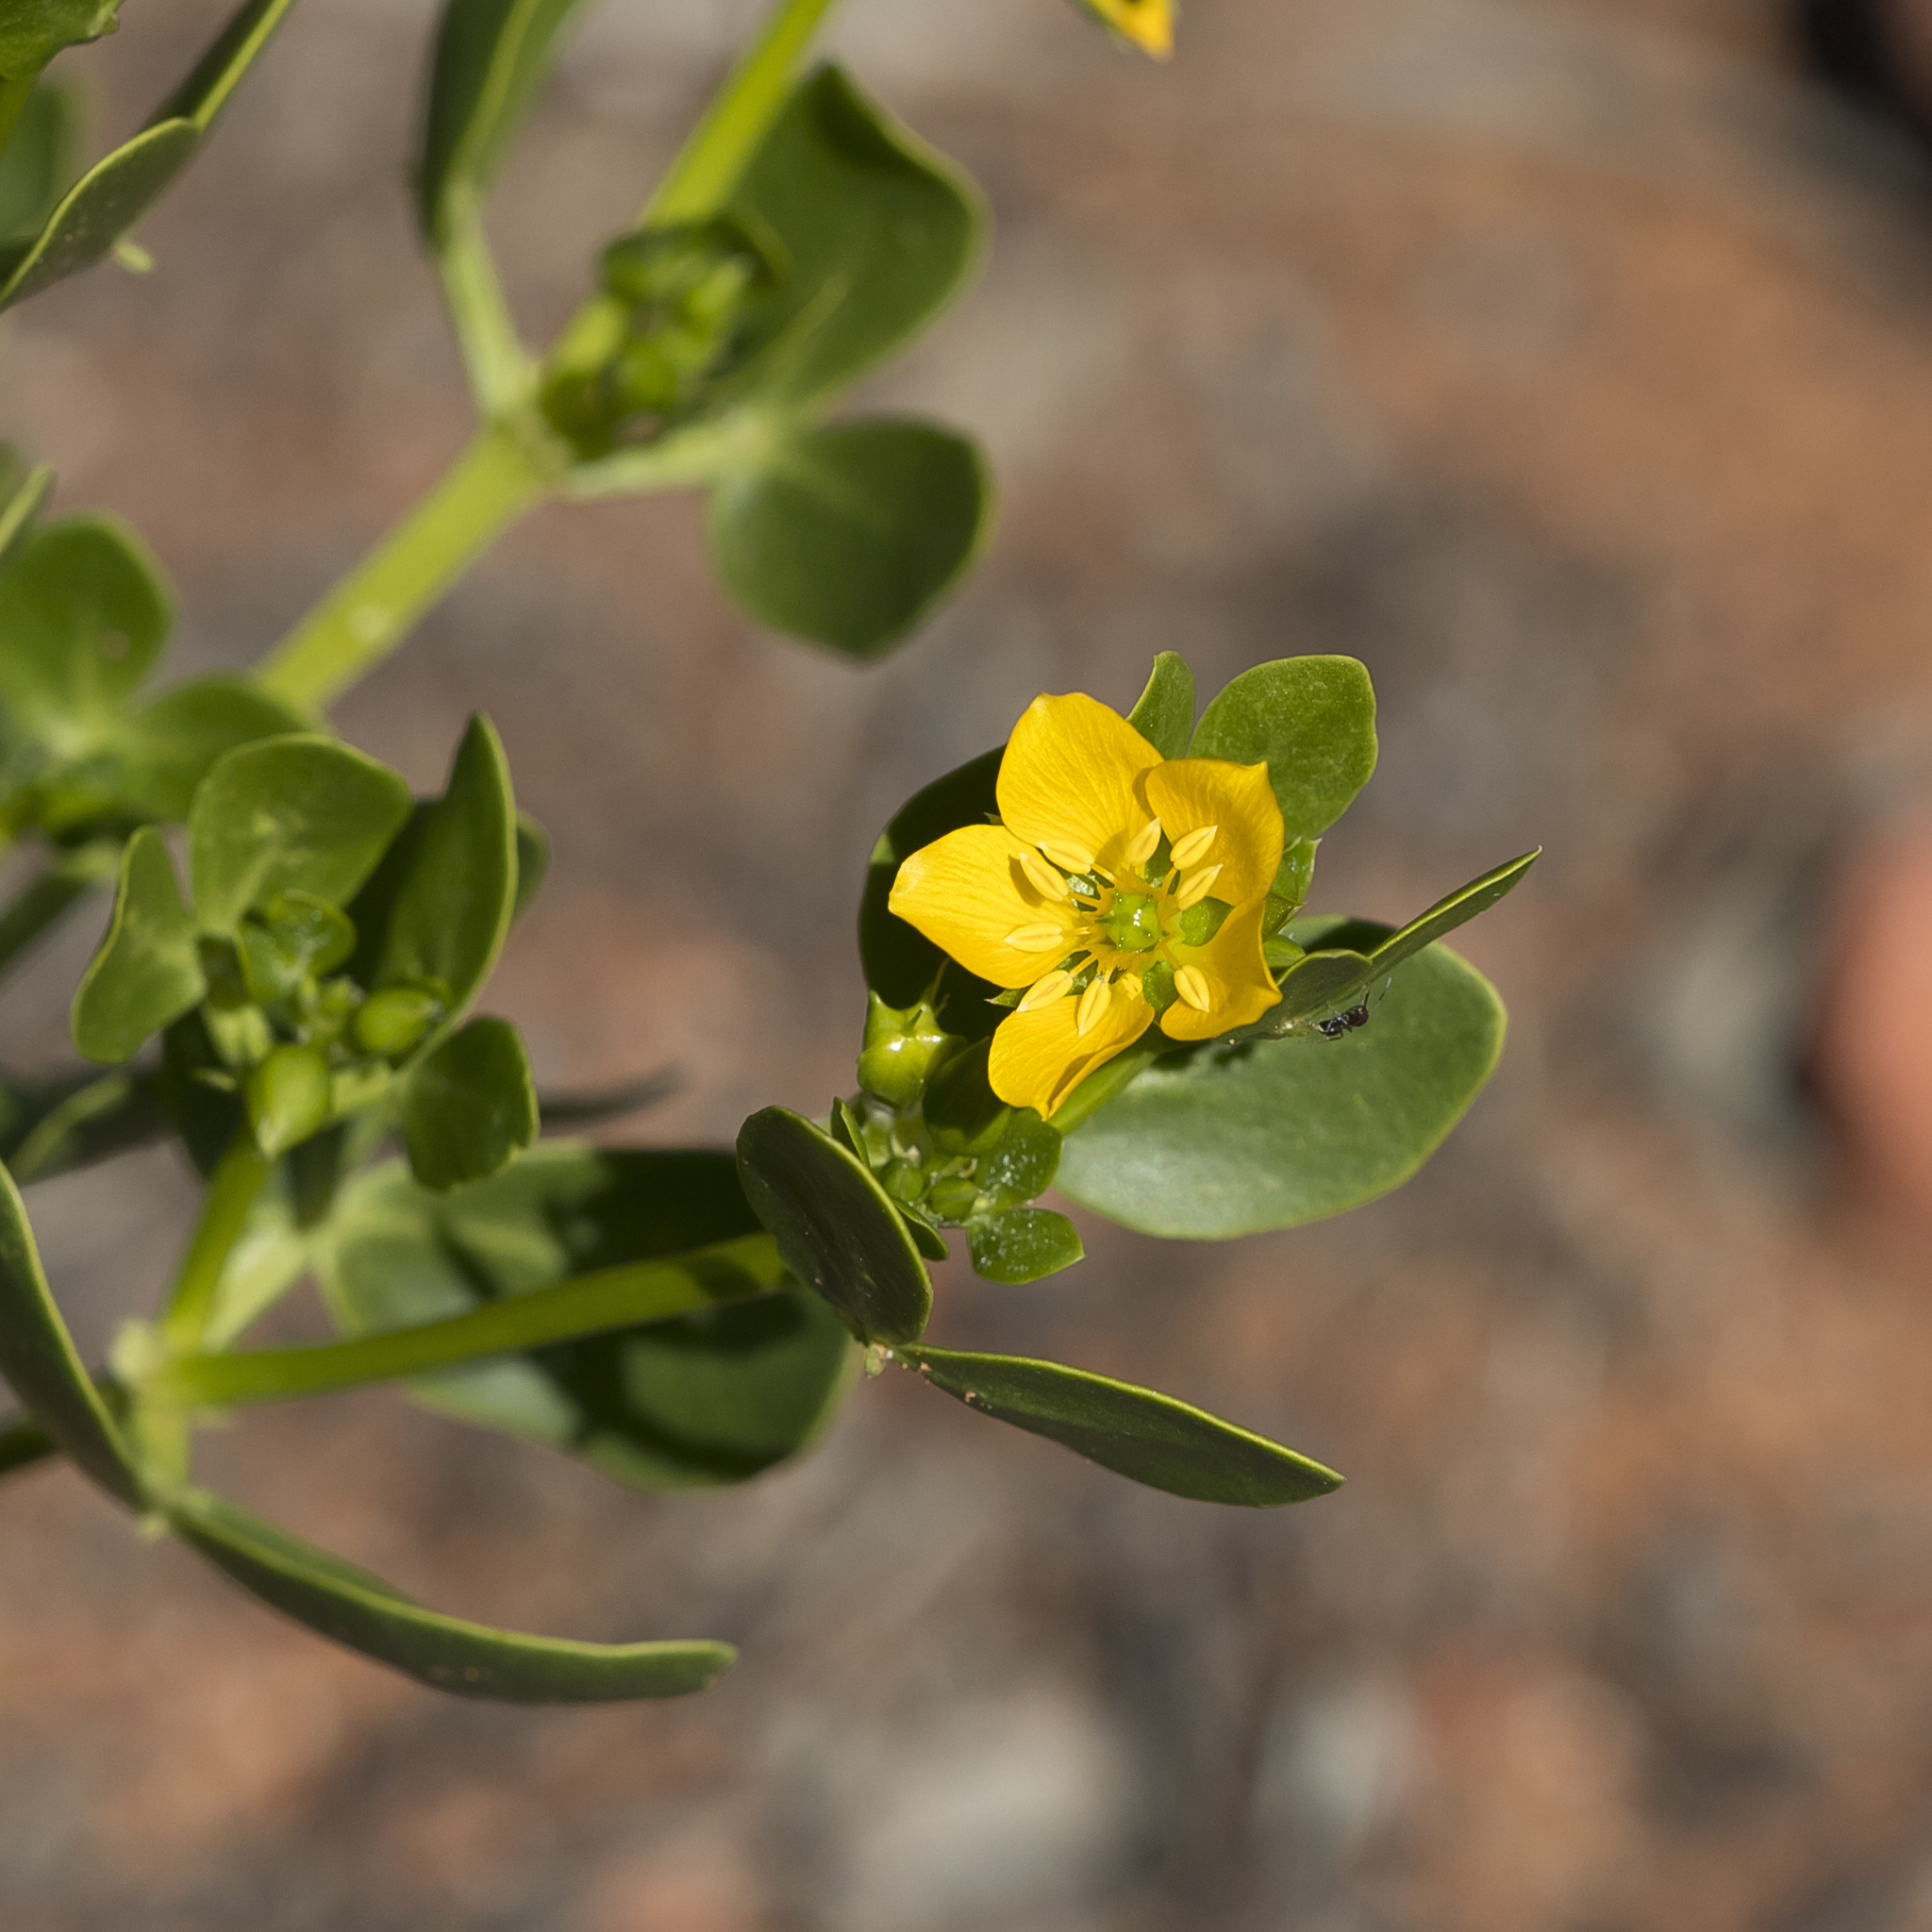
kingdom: Plantae
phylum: Tracheophyta
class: Magnoliopsida
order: Zygophyllales
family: Zygophyllaceae
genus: Roepera
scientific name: Roepera apiculata
